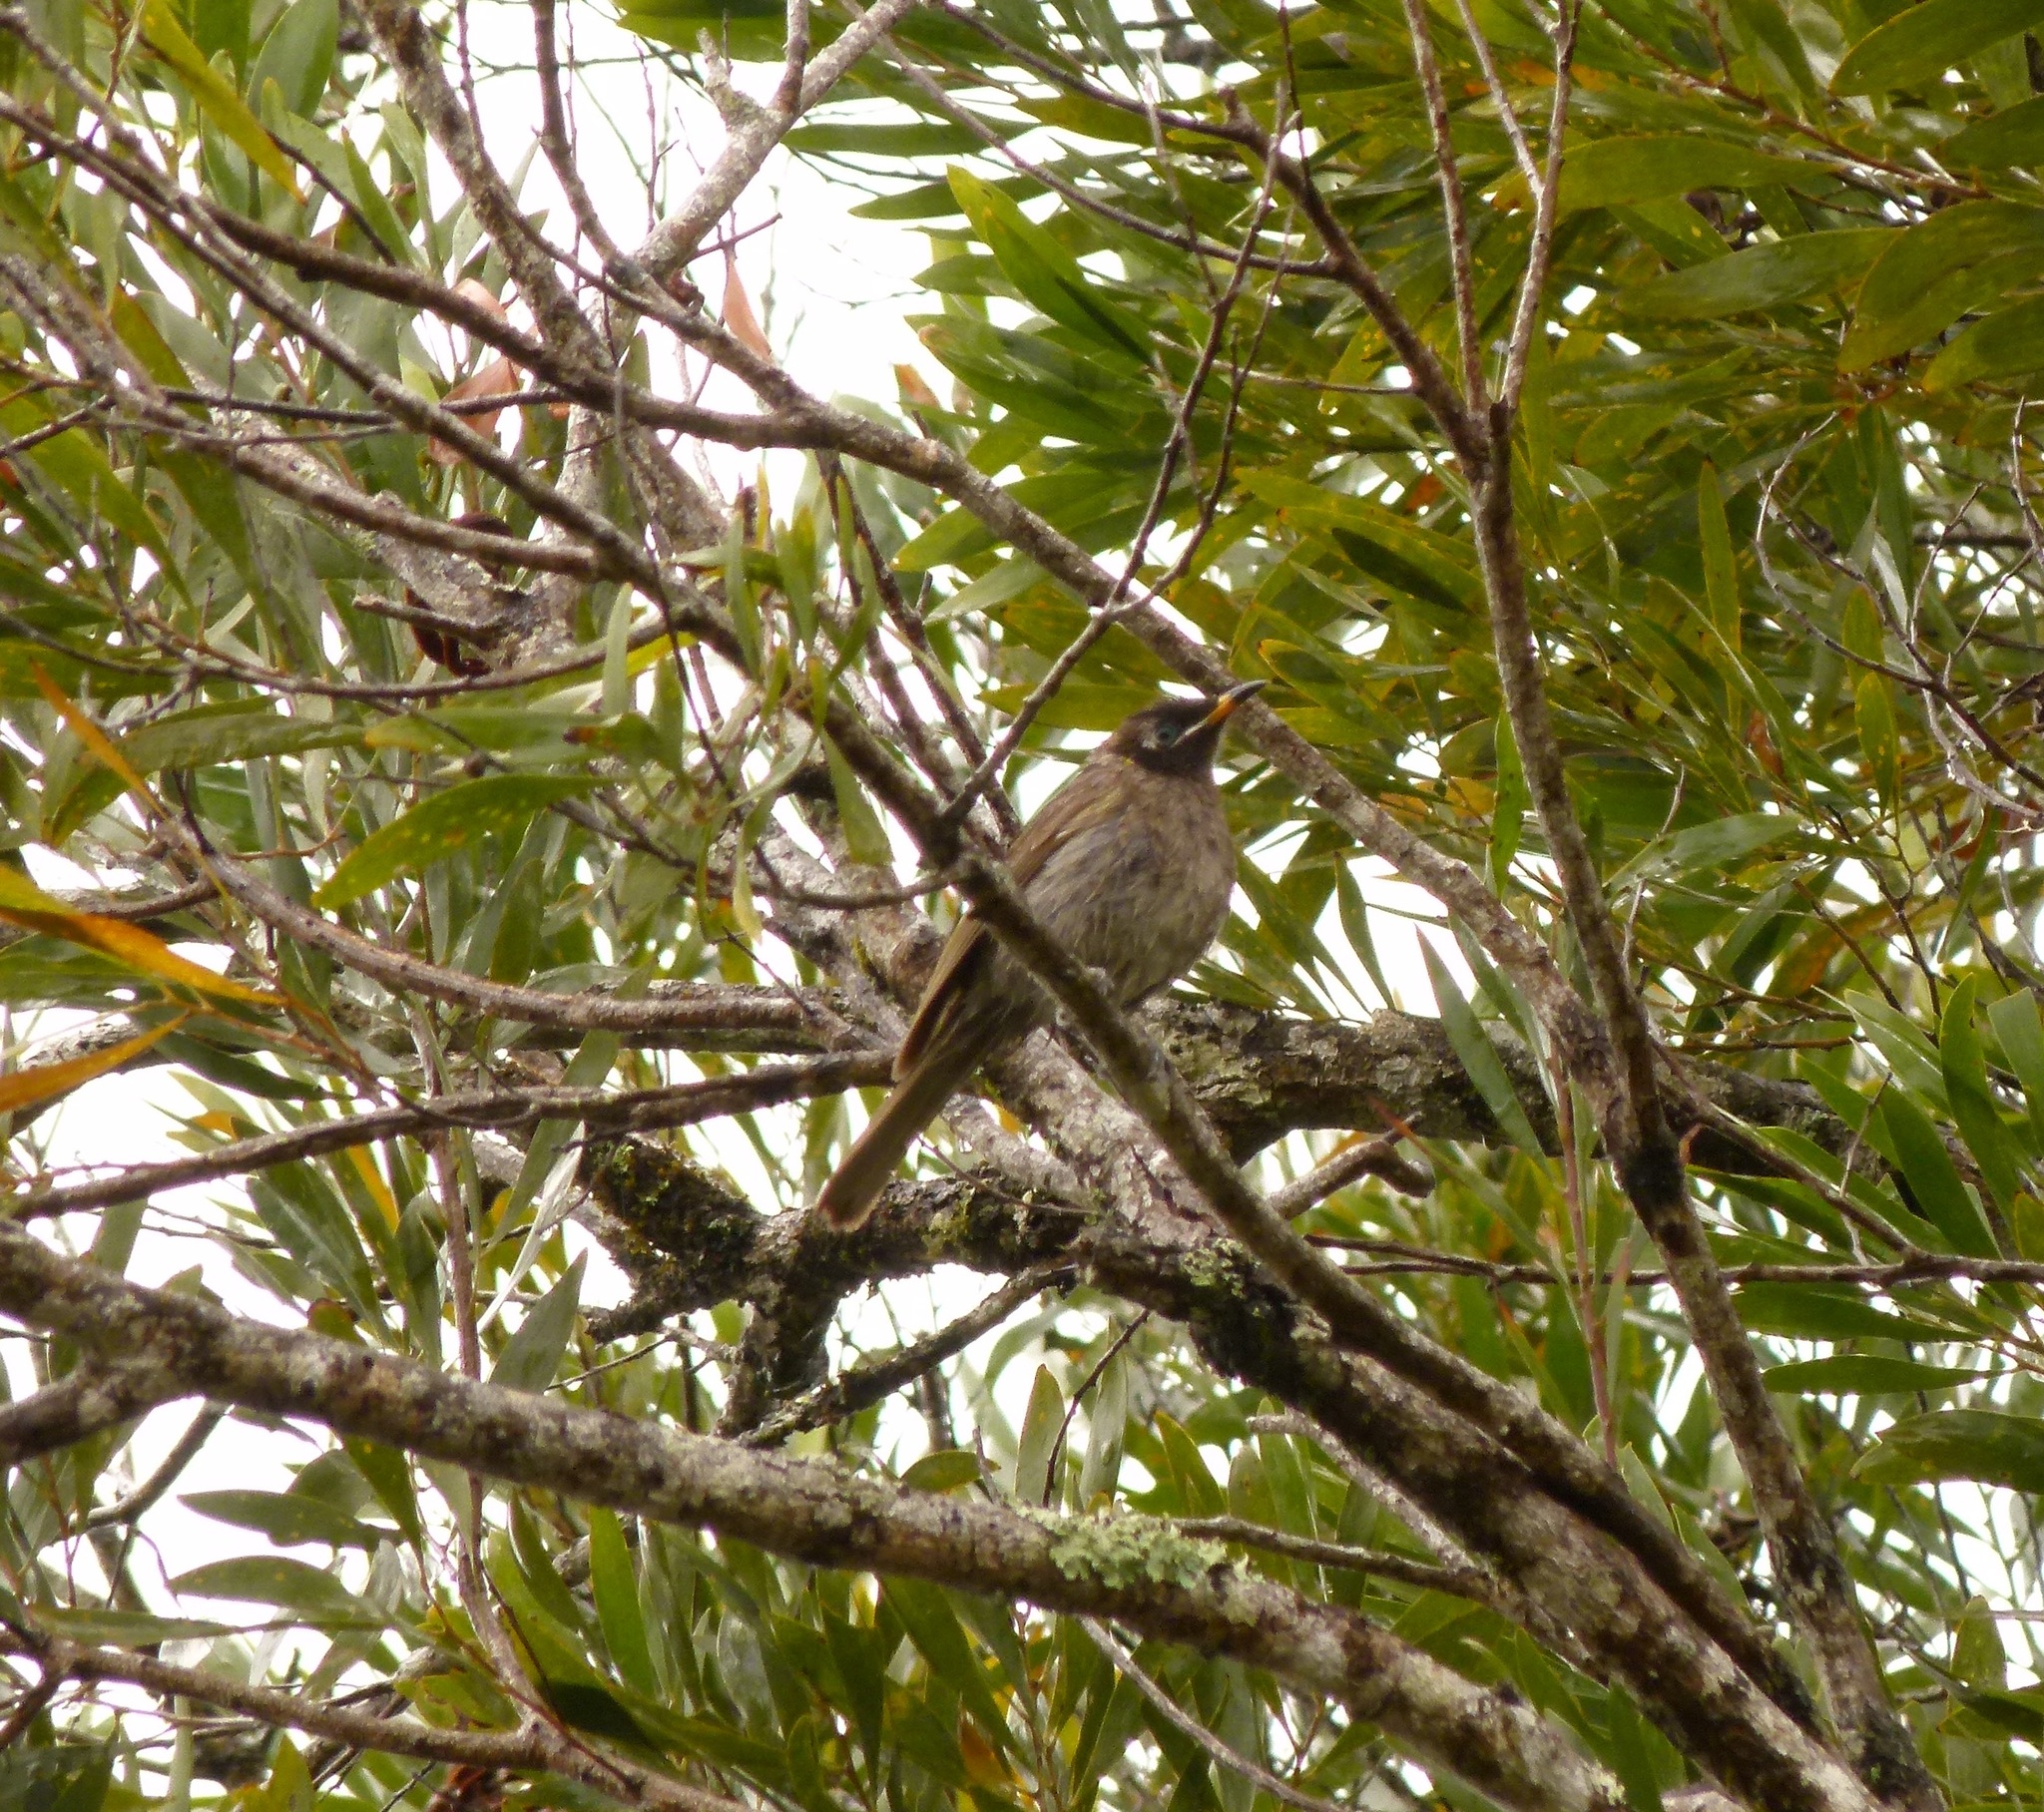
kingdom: Animalia
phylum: Chordata
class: Aves
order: Passeriformes
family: Meliphagidae
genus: Bolemoreus
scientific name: Bolemoreus frenatus
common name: Bridled honeyeater
